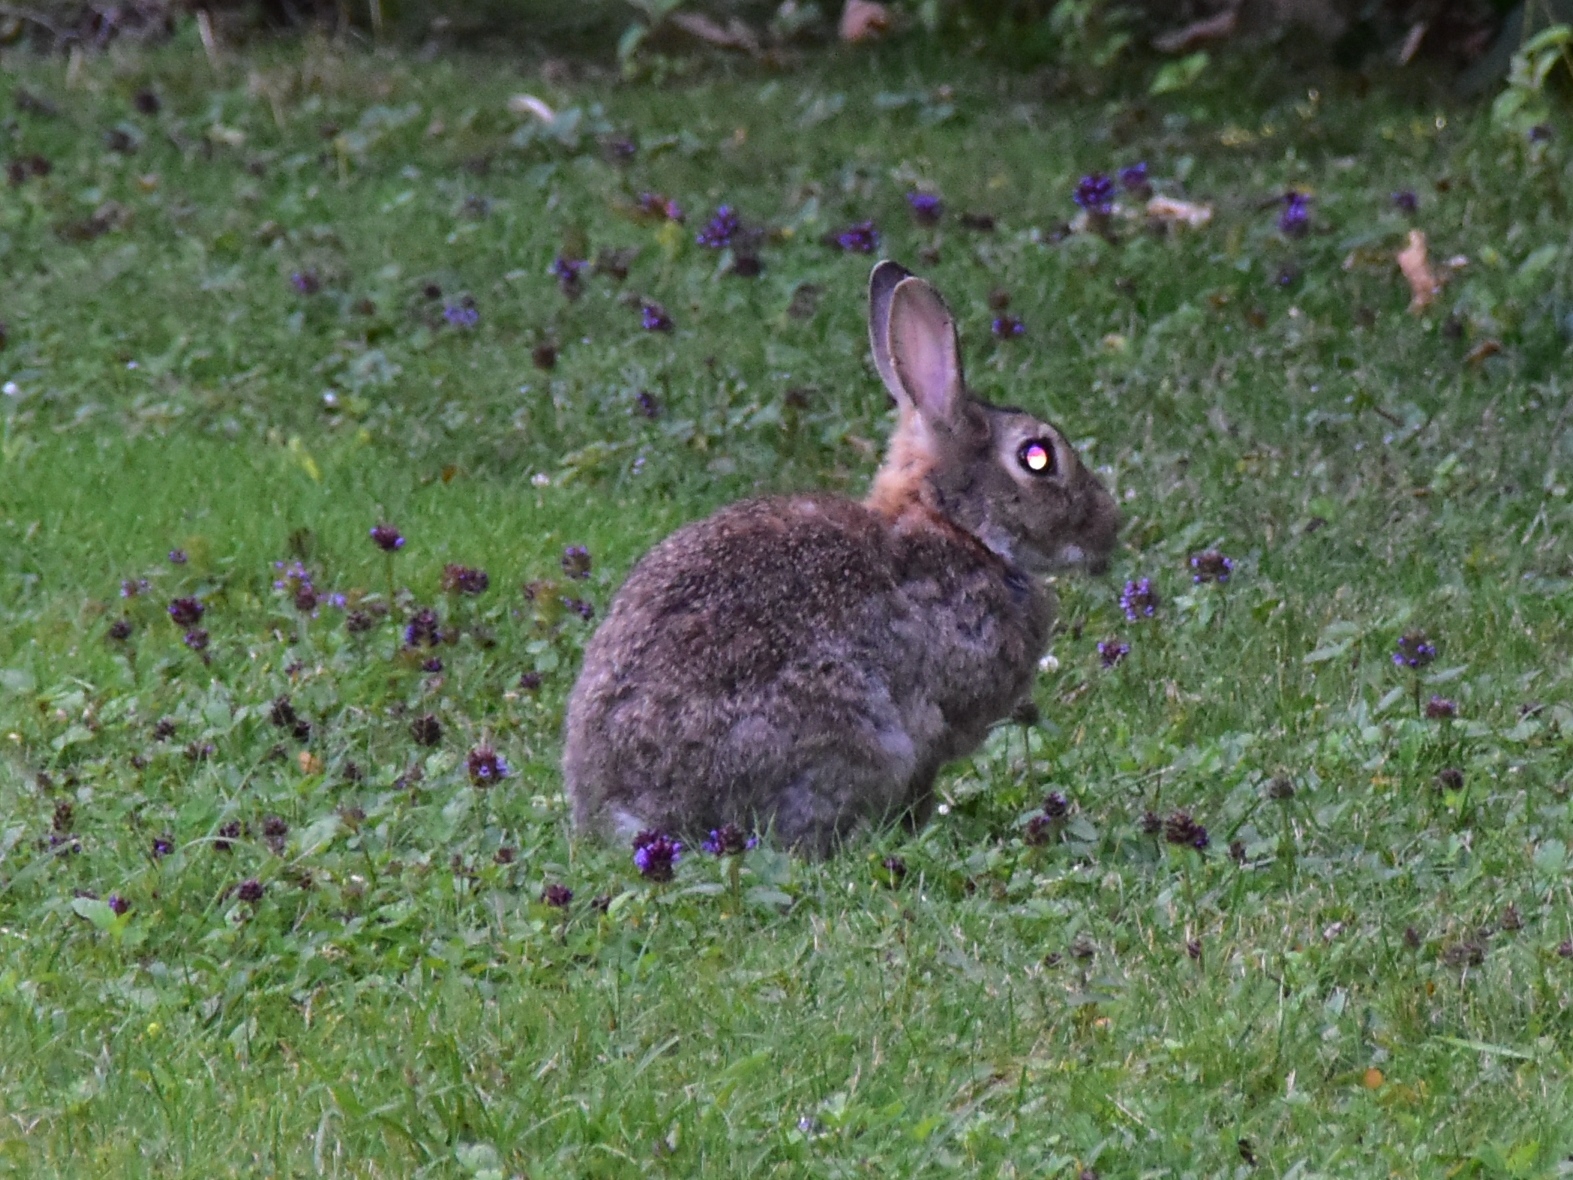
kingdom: Animalia
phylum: Chordata
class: Mammalia
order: Lagomorpha
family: Leporidae
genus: Oryctolagus
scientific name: Oryctolagus cuniculus
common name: European rabbit
